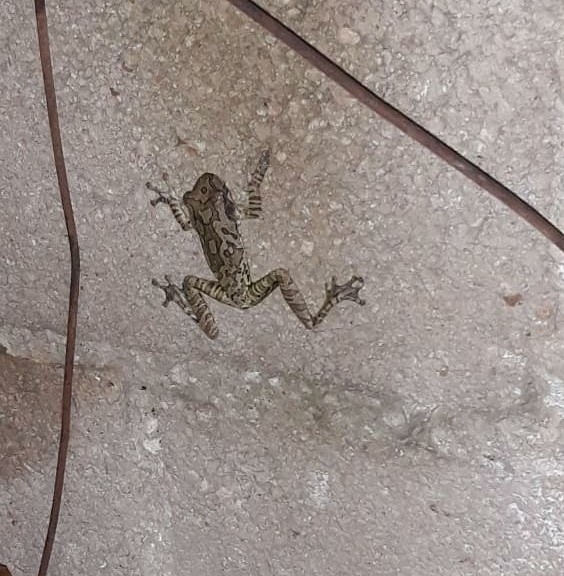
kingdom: Animalia
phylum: Chordata
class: Amphibia
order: Anura
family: Hylidae
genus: Smilisca
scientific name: Smilisca baudinii
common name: Mexican smilisca
